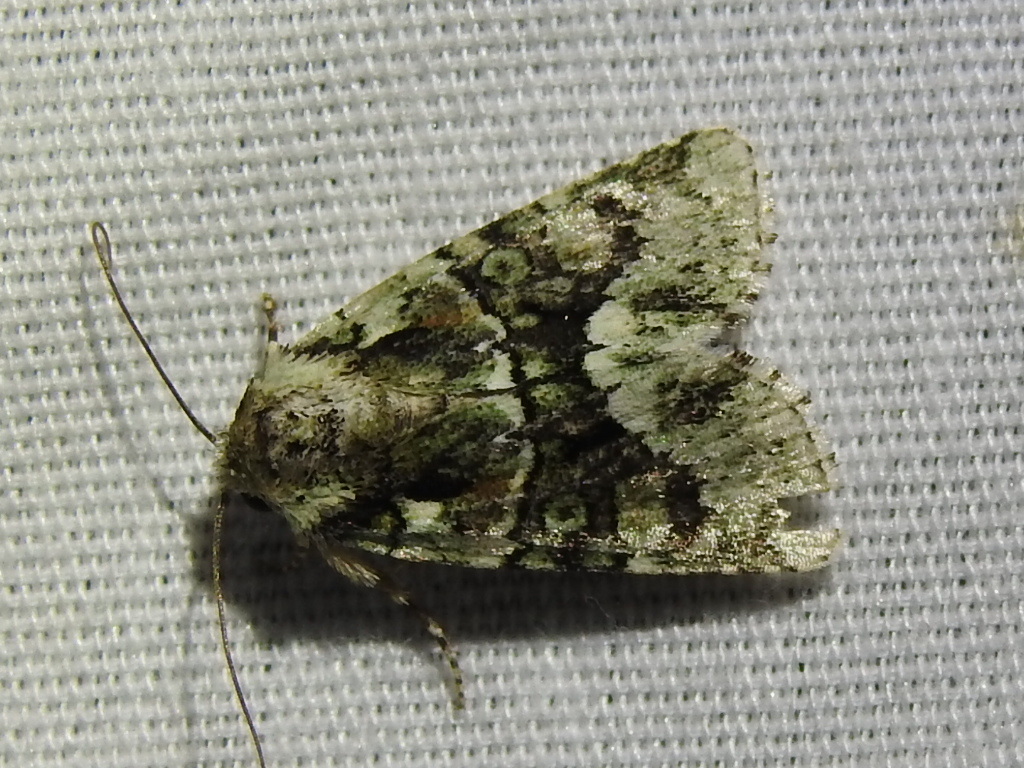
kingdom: Animalia
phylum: Arthropoda
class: Insecta
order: Lepidoptera
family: Noctuidae
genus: Lacinipolia
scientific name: Lacinipolia laudabilis
